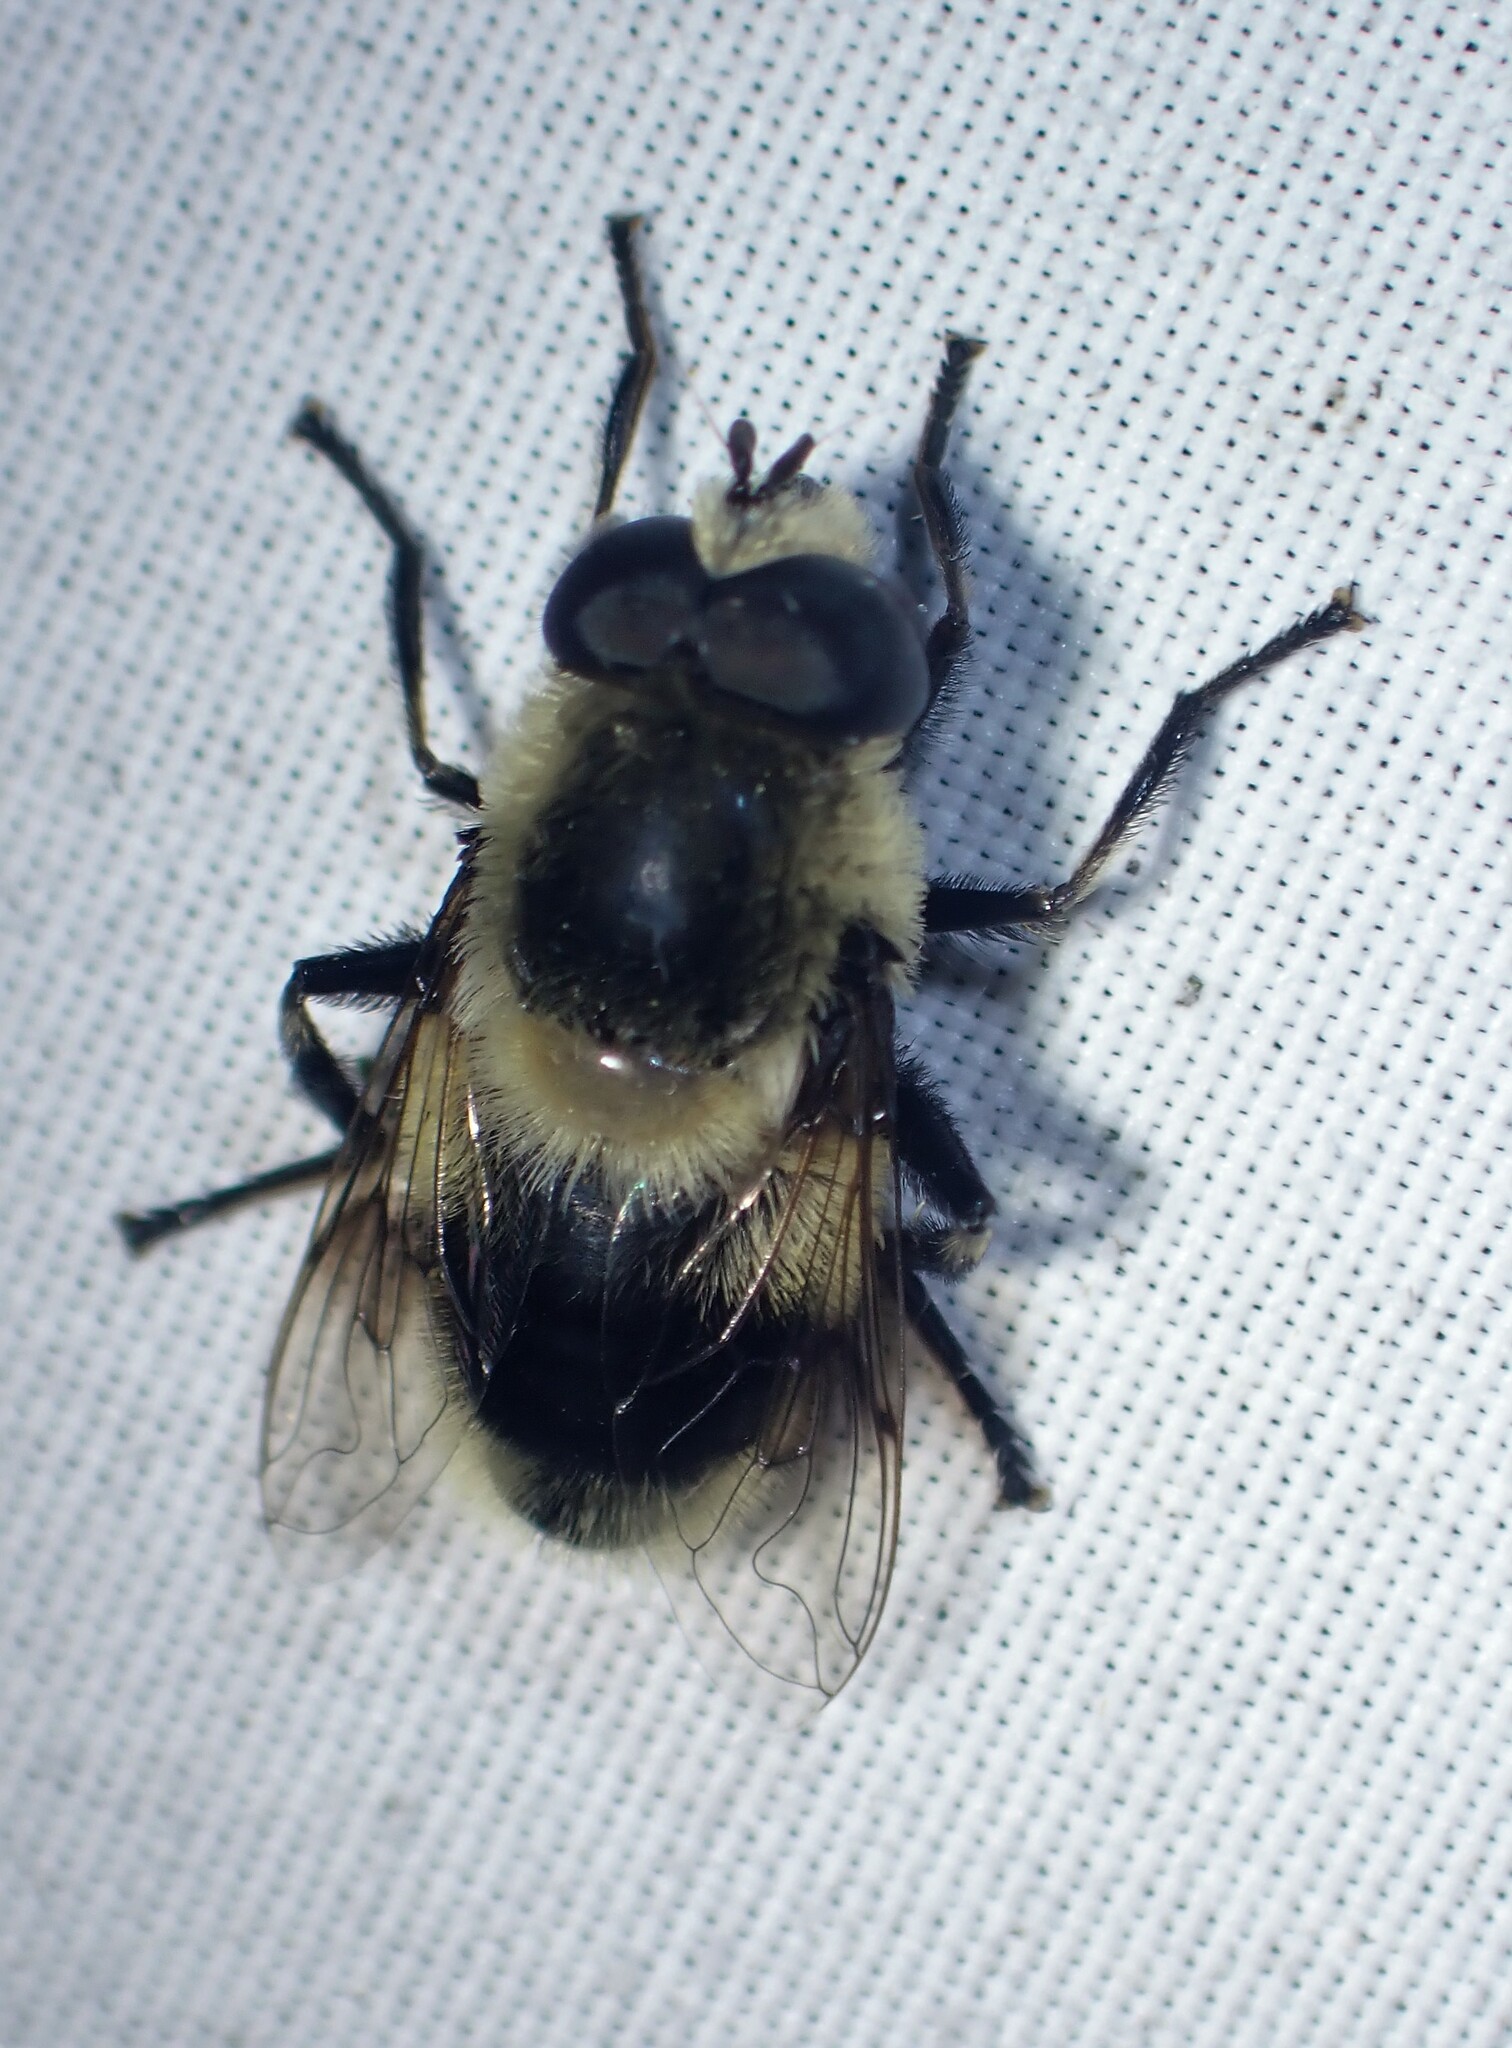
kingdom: Animalia
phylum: Arthropoda
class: Insecta
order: Diptera
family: Syrphidae
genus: Eristalis
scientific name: Eristalis anthophorina
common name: Orange-spotted drone fly
